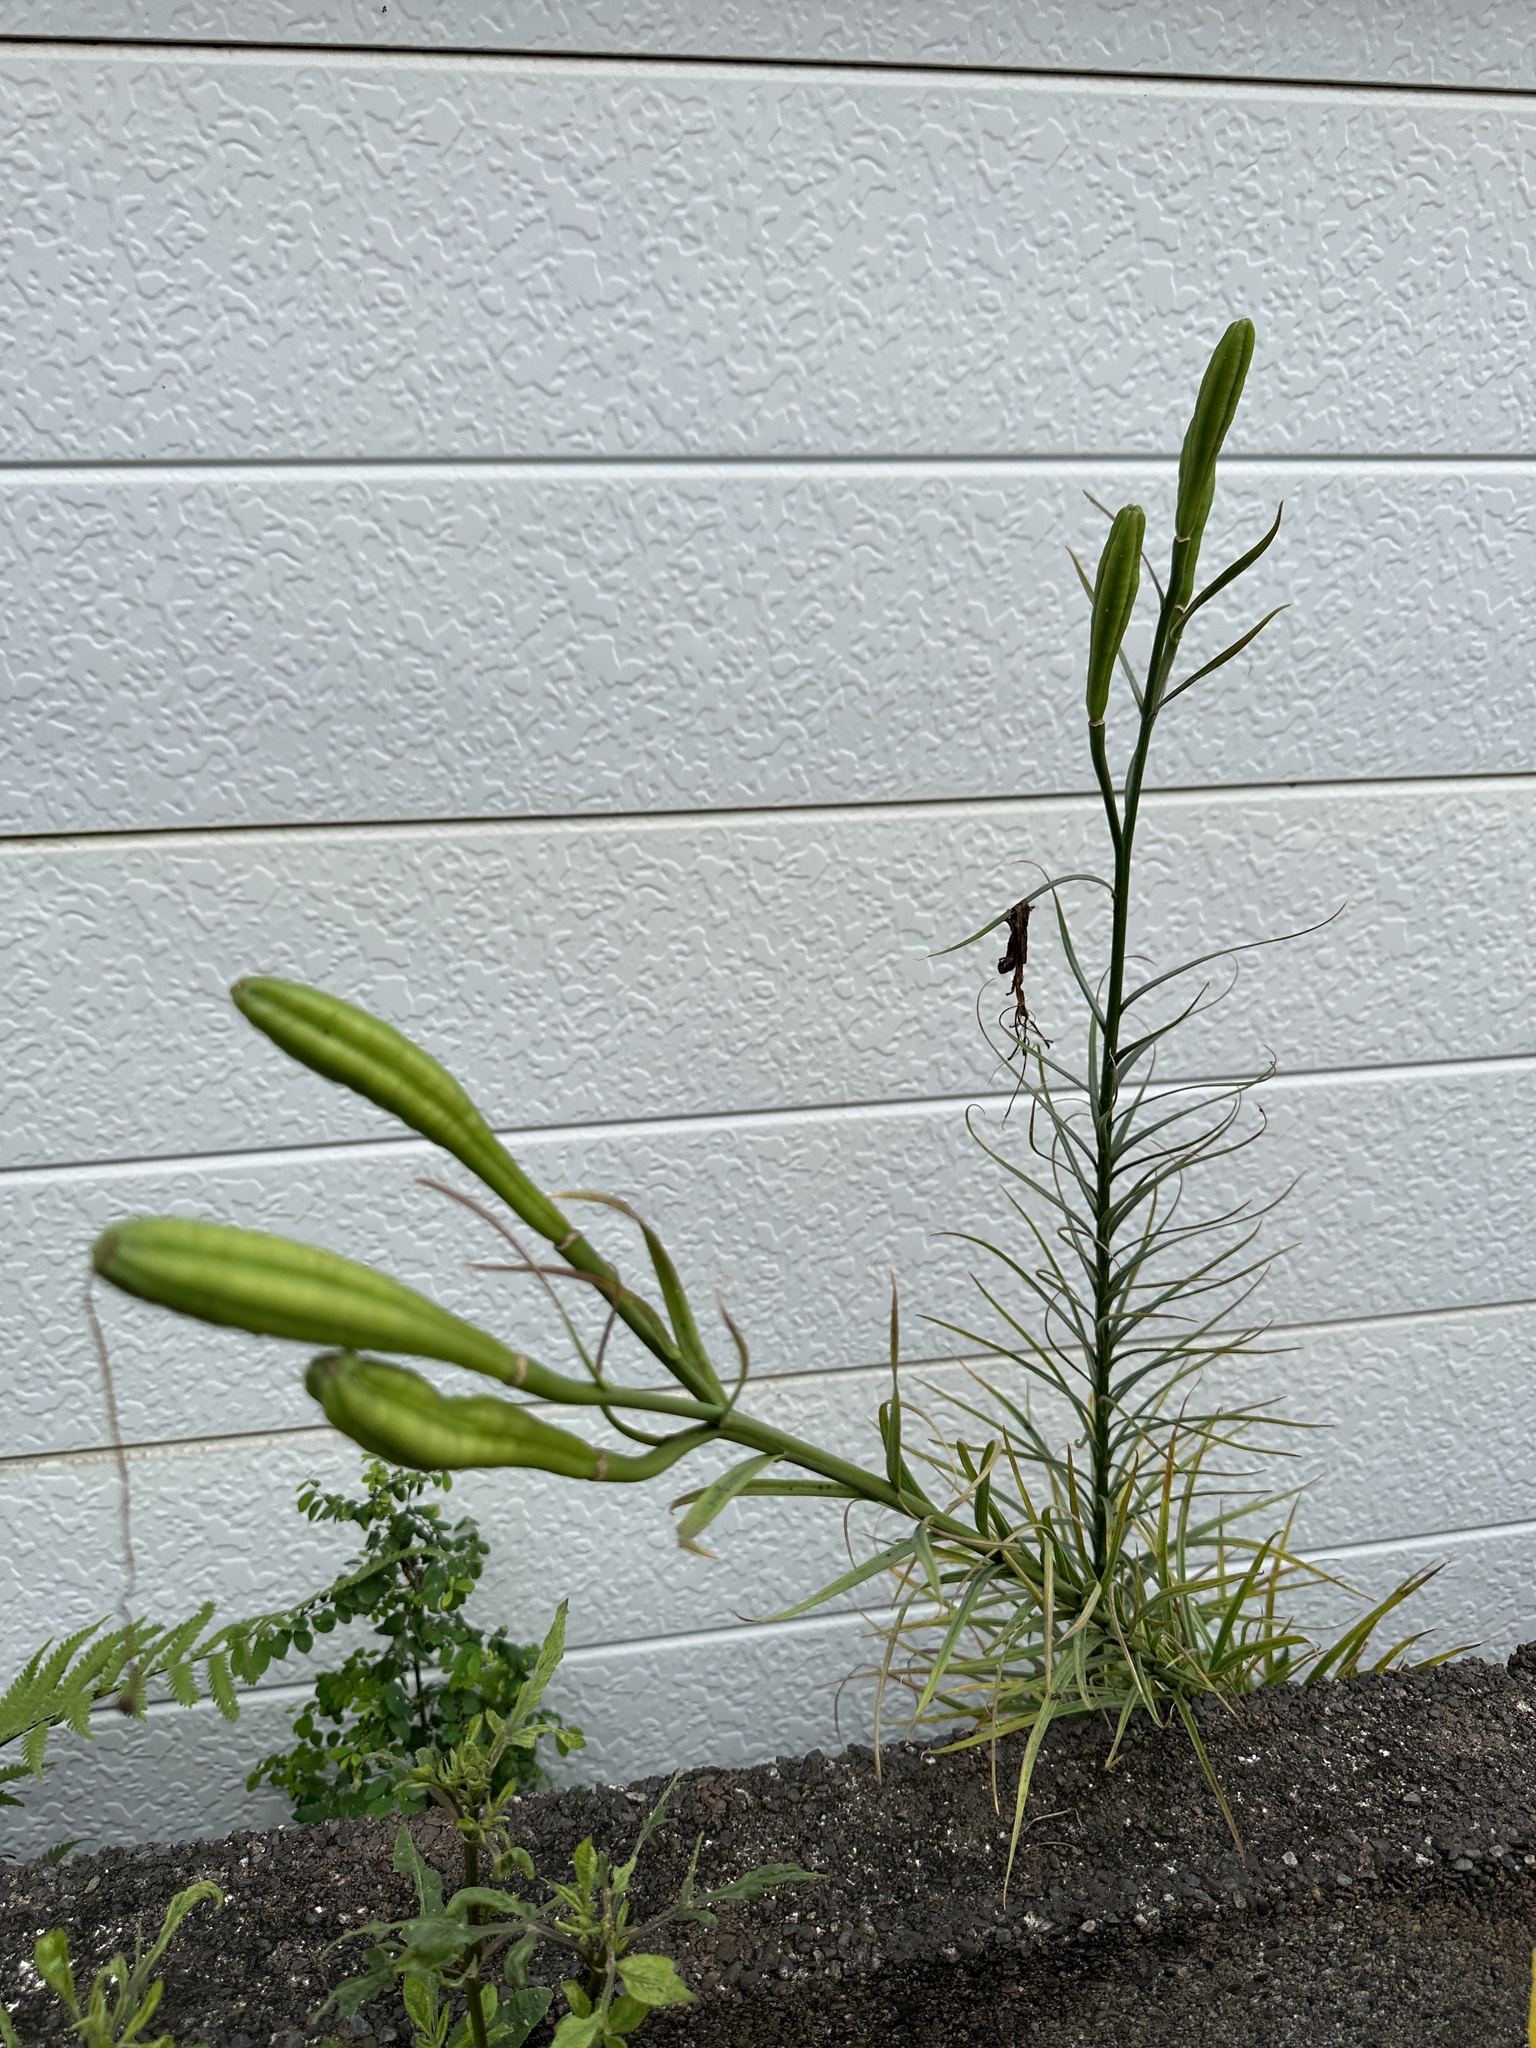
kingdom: Plantae
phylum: Tracheophyta
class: Liliopsida
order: Liliales
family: Liliaceae
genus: Lilium
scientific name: Lilium formosanum
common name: Formosa lily
